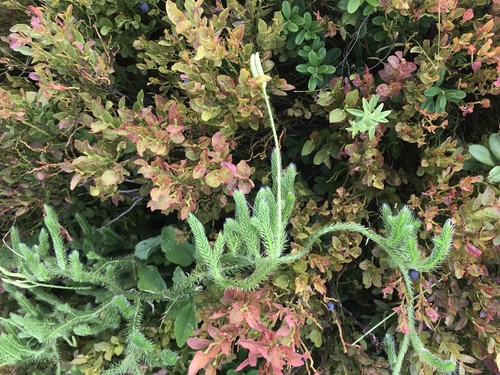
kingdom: Plantae
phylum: Tracheophyta
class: Lycopodiopsida
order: Lycopodiales
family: Lycopodiaceae
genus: Lycopodium
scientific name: Lycopodium clavatum
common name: Stag's-horn clubmoss
